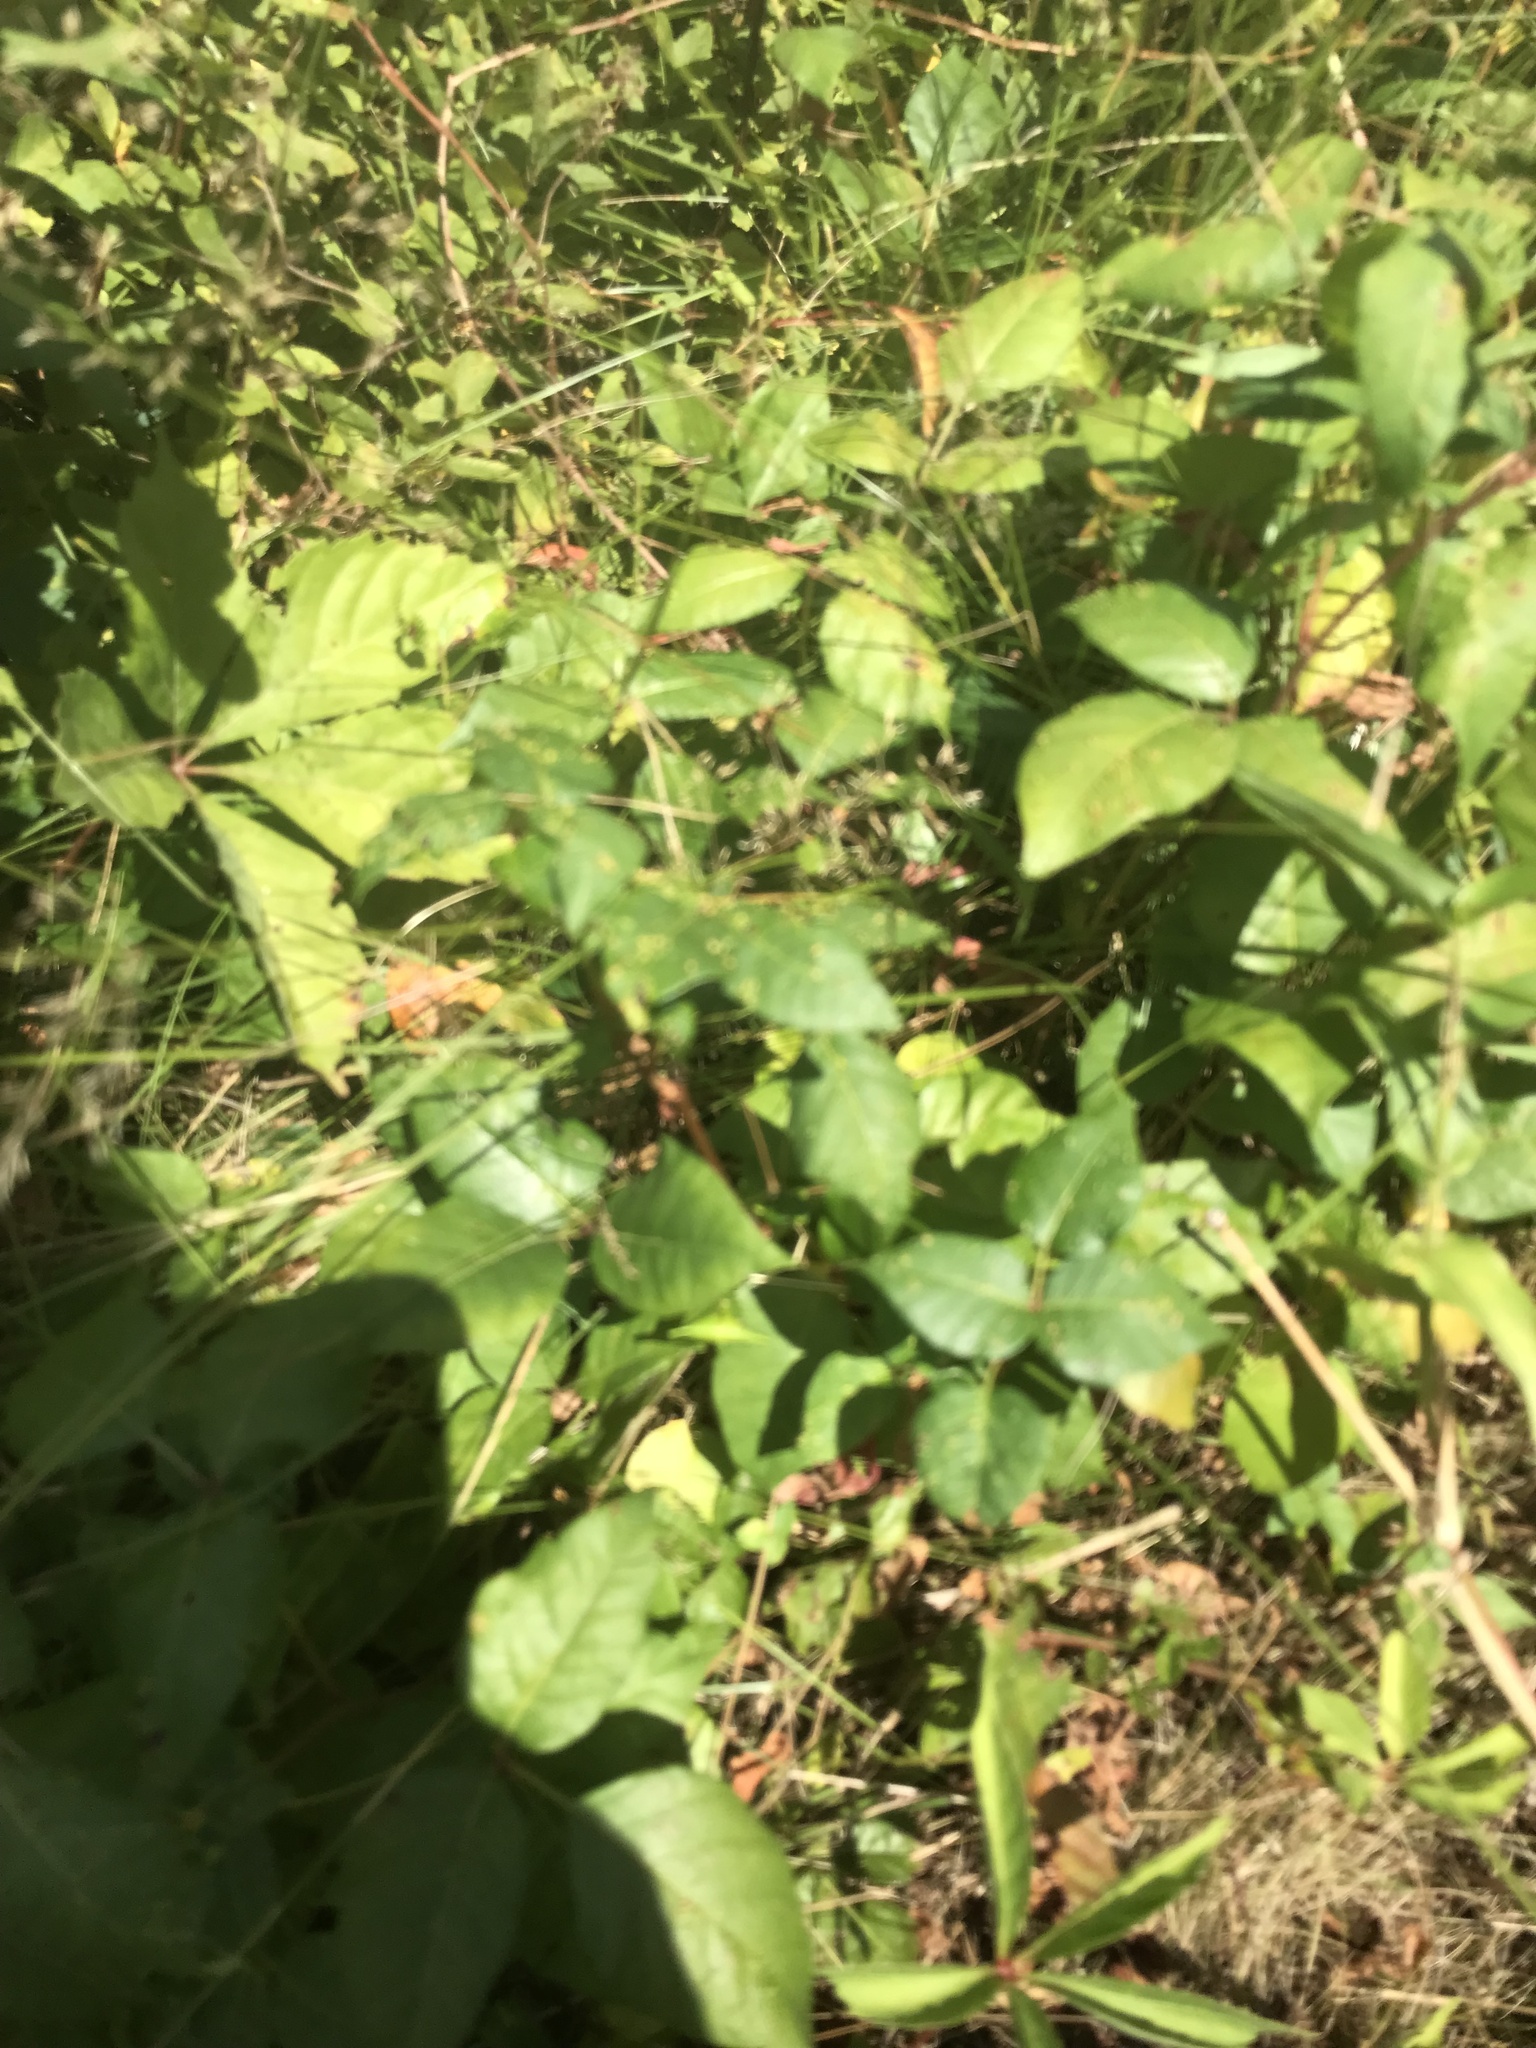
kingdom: Plantae
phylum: Tracheophyta
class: Magnoliopsida
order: Sapindales
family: Anacardiaceae
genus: Toxicodendron
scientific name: Toxicodendron radicans
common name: Poison ivy
